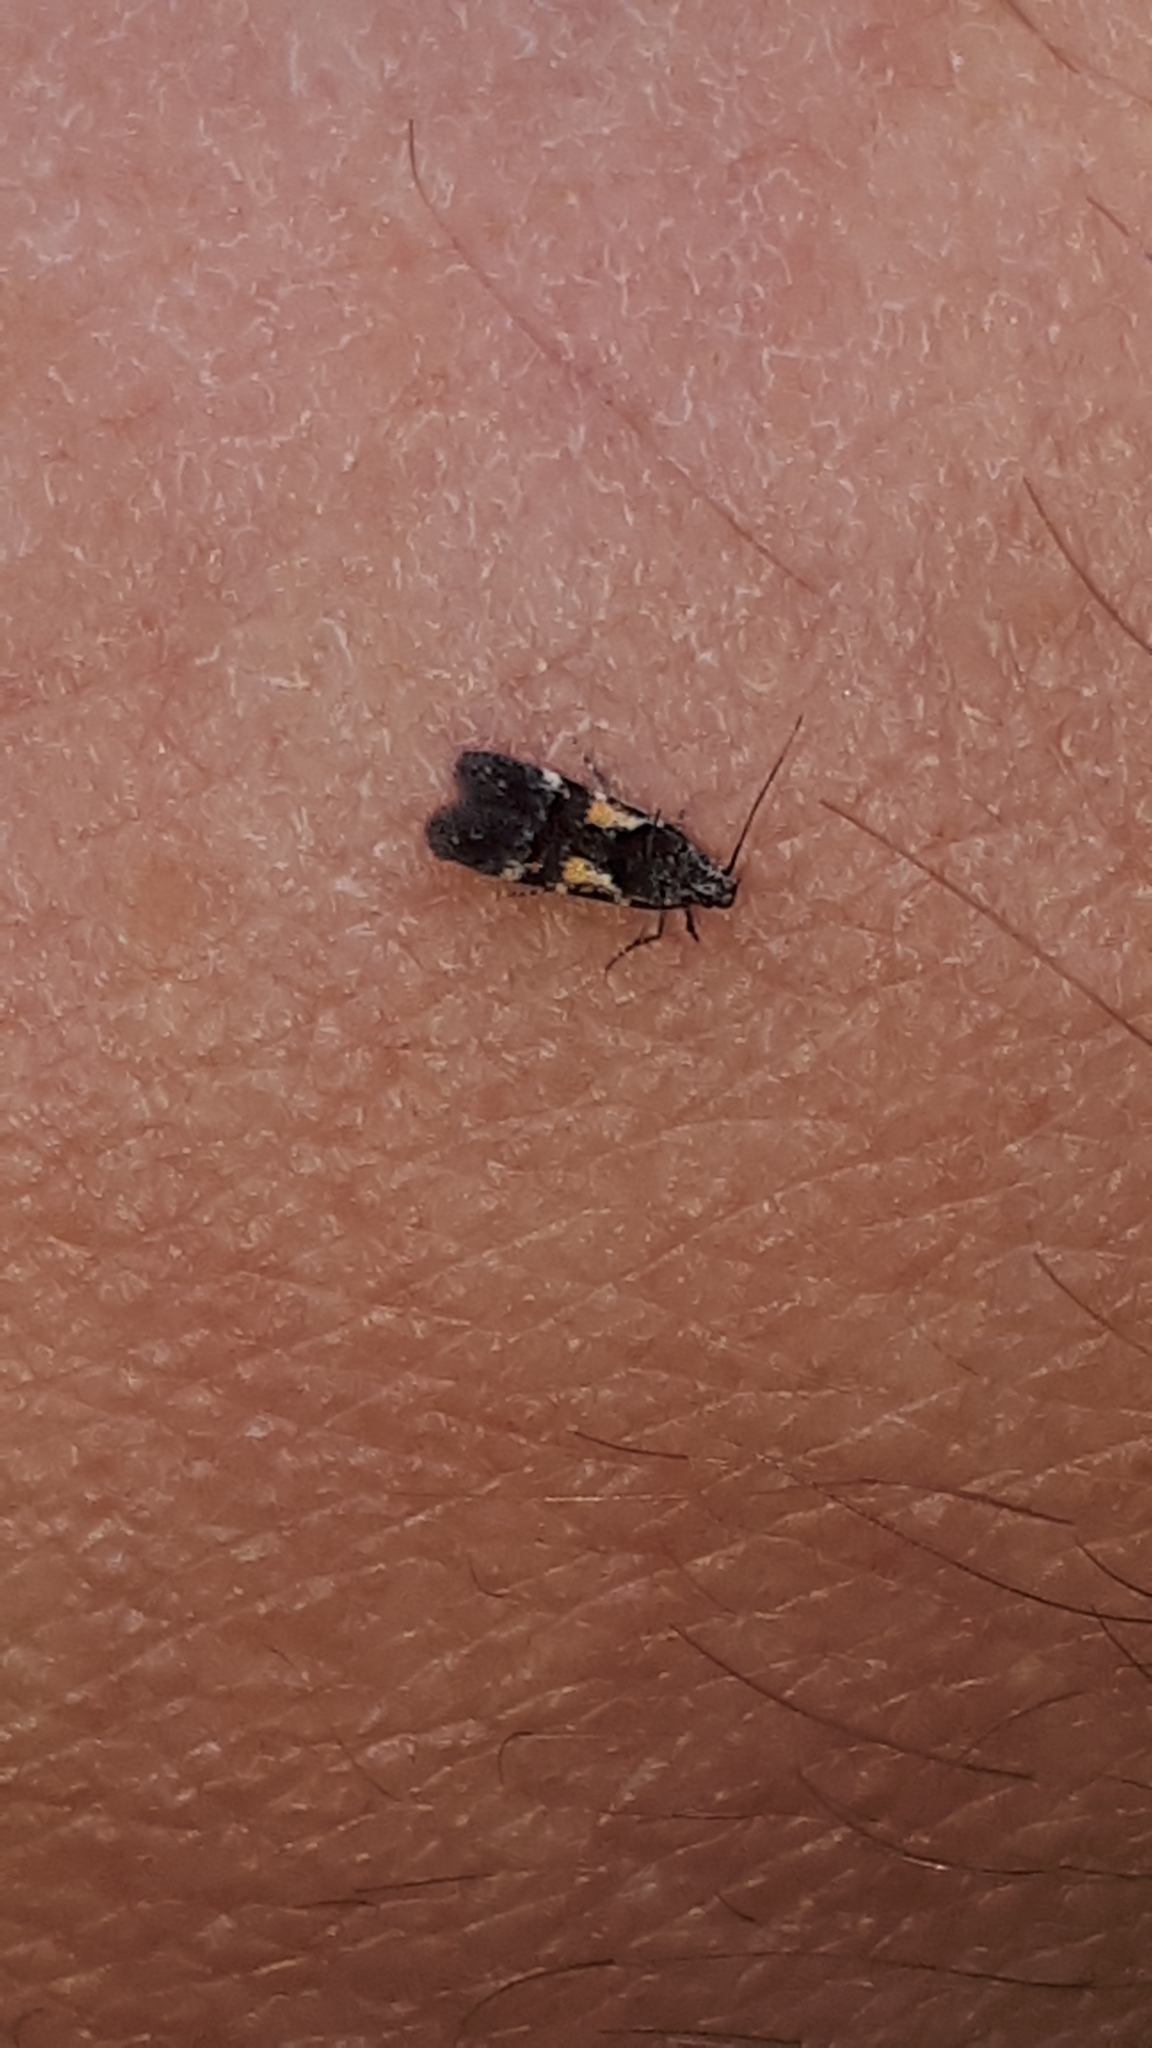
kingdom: Animalia
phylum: Arthropoda
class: Insecta
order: Lepidoptera
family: Gelechiidae
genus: Teleiodes
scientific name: Teleiodes luculella
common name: Crescent groundling
